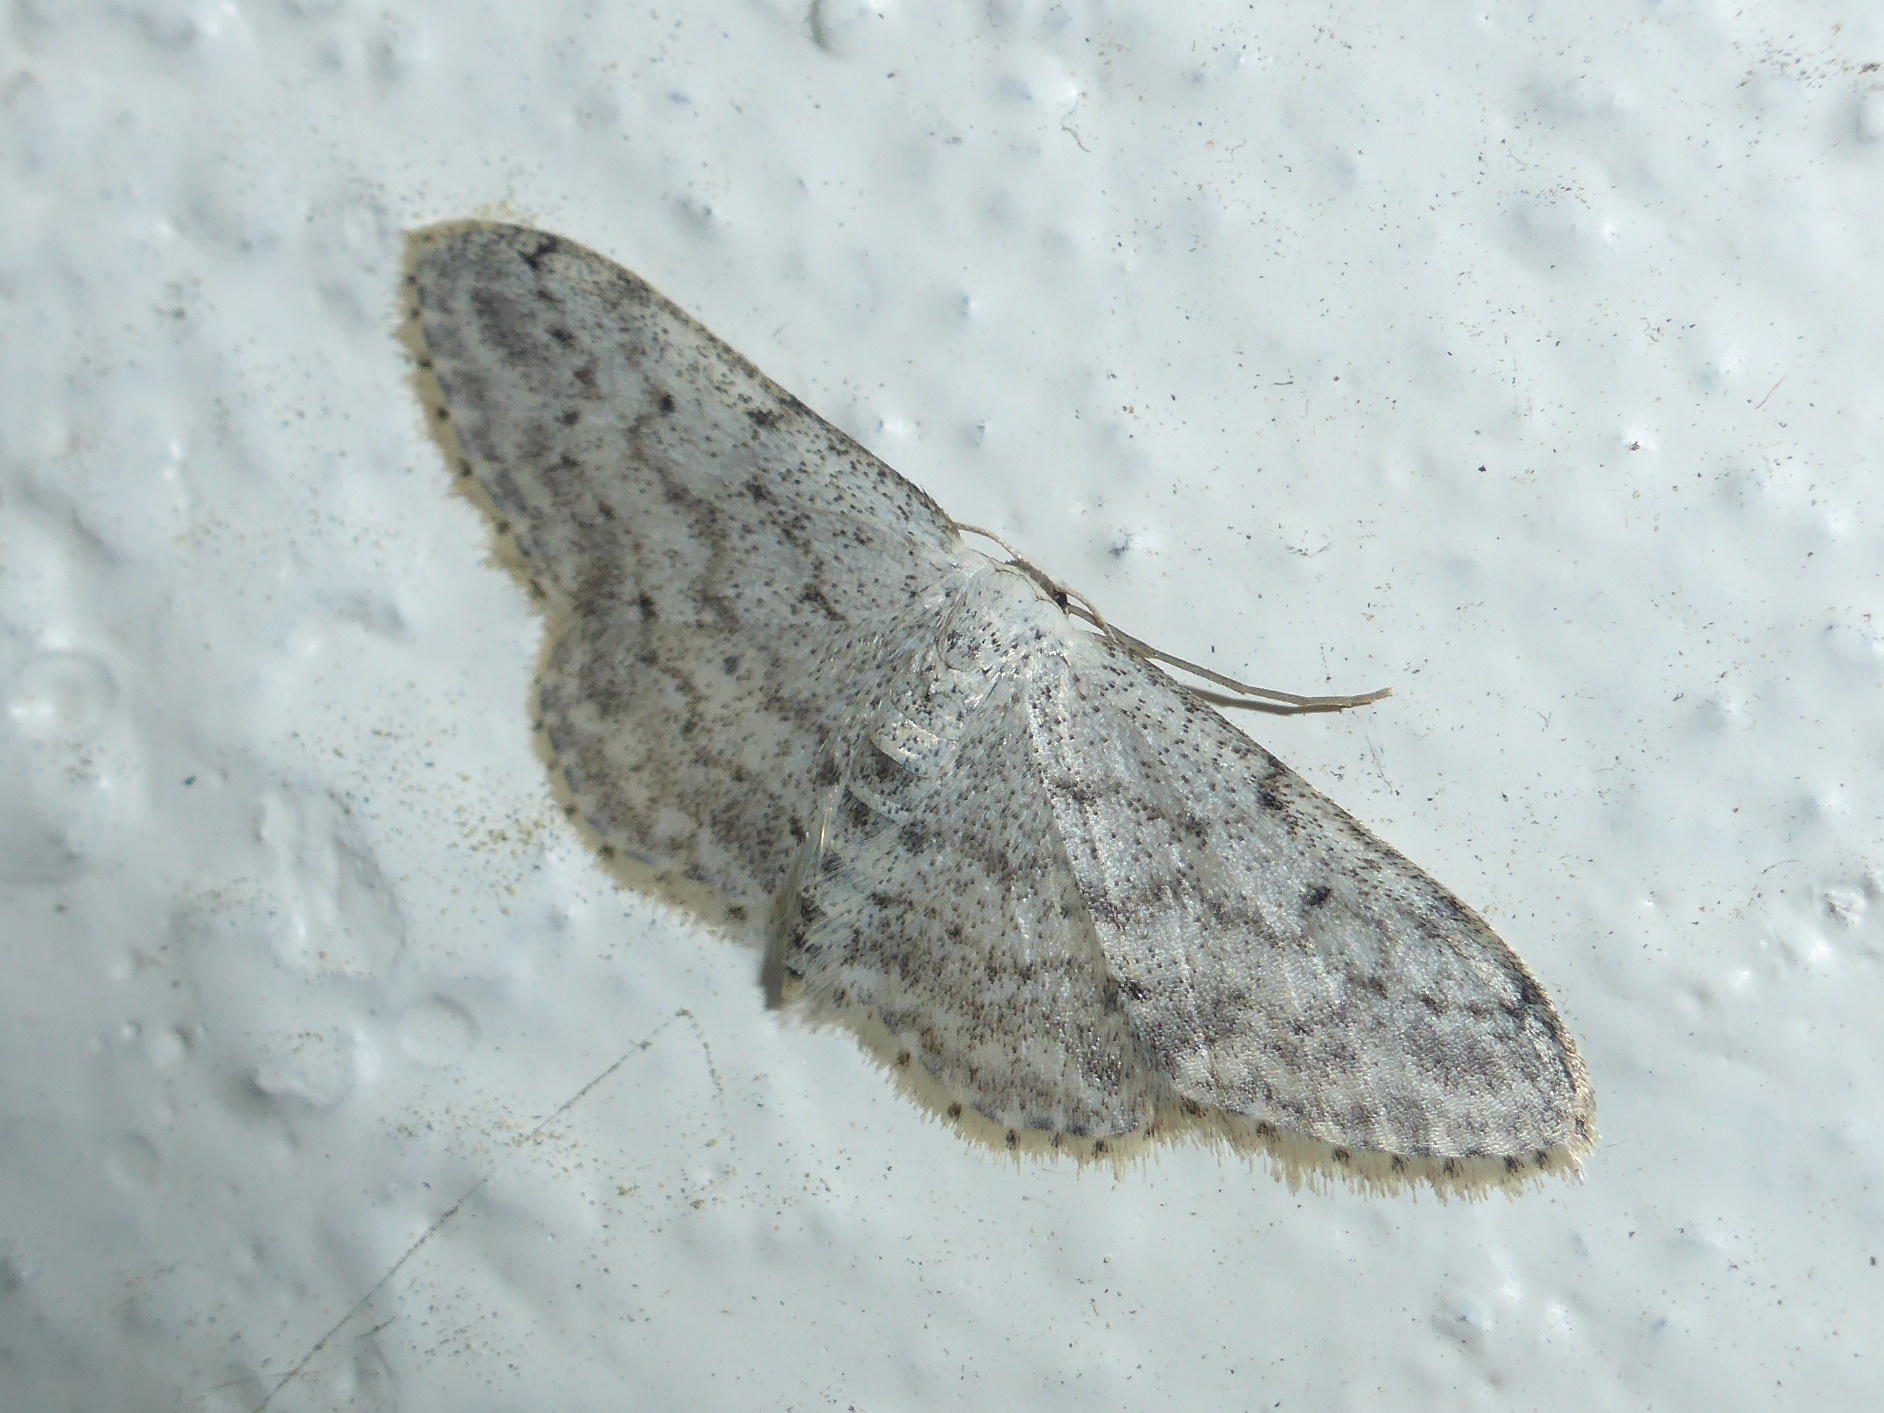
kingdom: Animalia
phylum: Arthropoda
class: Insecta
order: Lepidoptera
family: Geometridae
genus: Idaea
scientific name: Idaea seriata
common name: Small dusty wave
